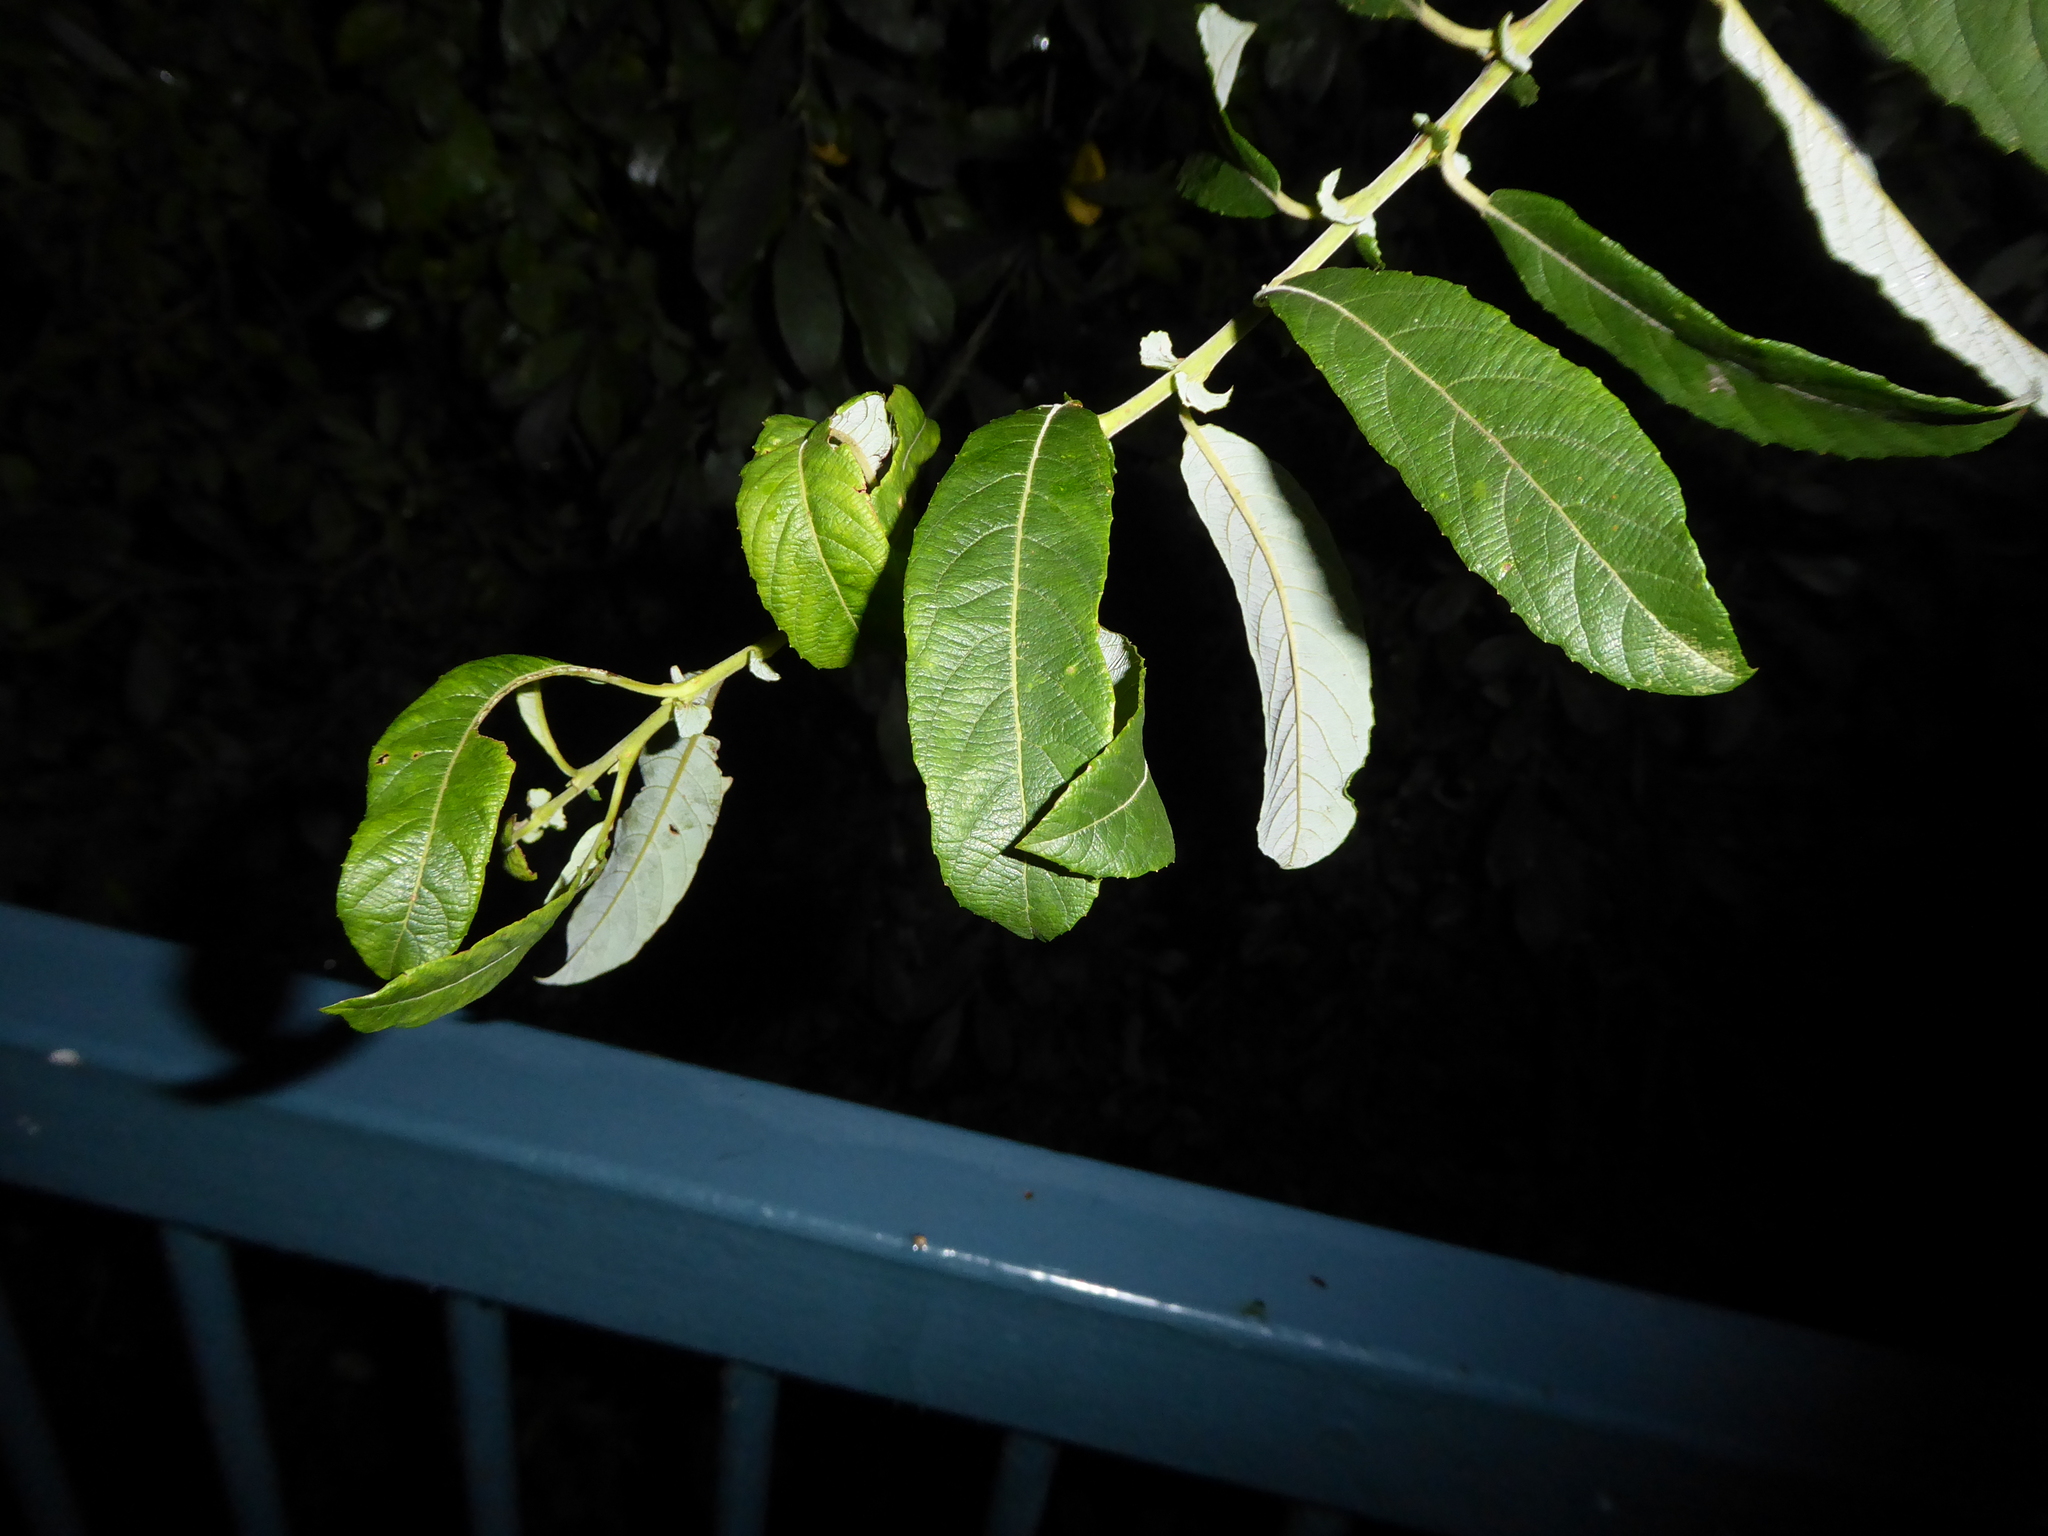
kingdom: Plantae
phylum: Tracheophyta
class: Magnoliopsida
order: Malpighiales
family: Salicaceae
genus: Salix
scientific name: Salix atrocinerea
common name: Rusty willow
